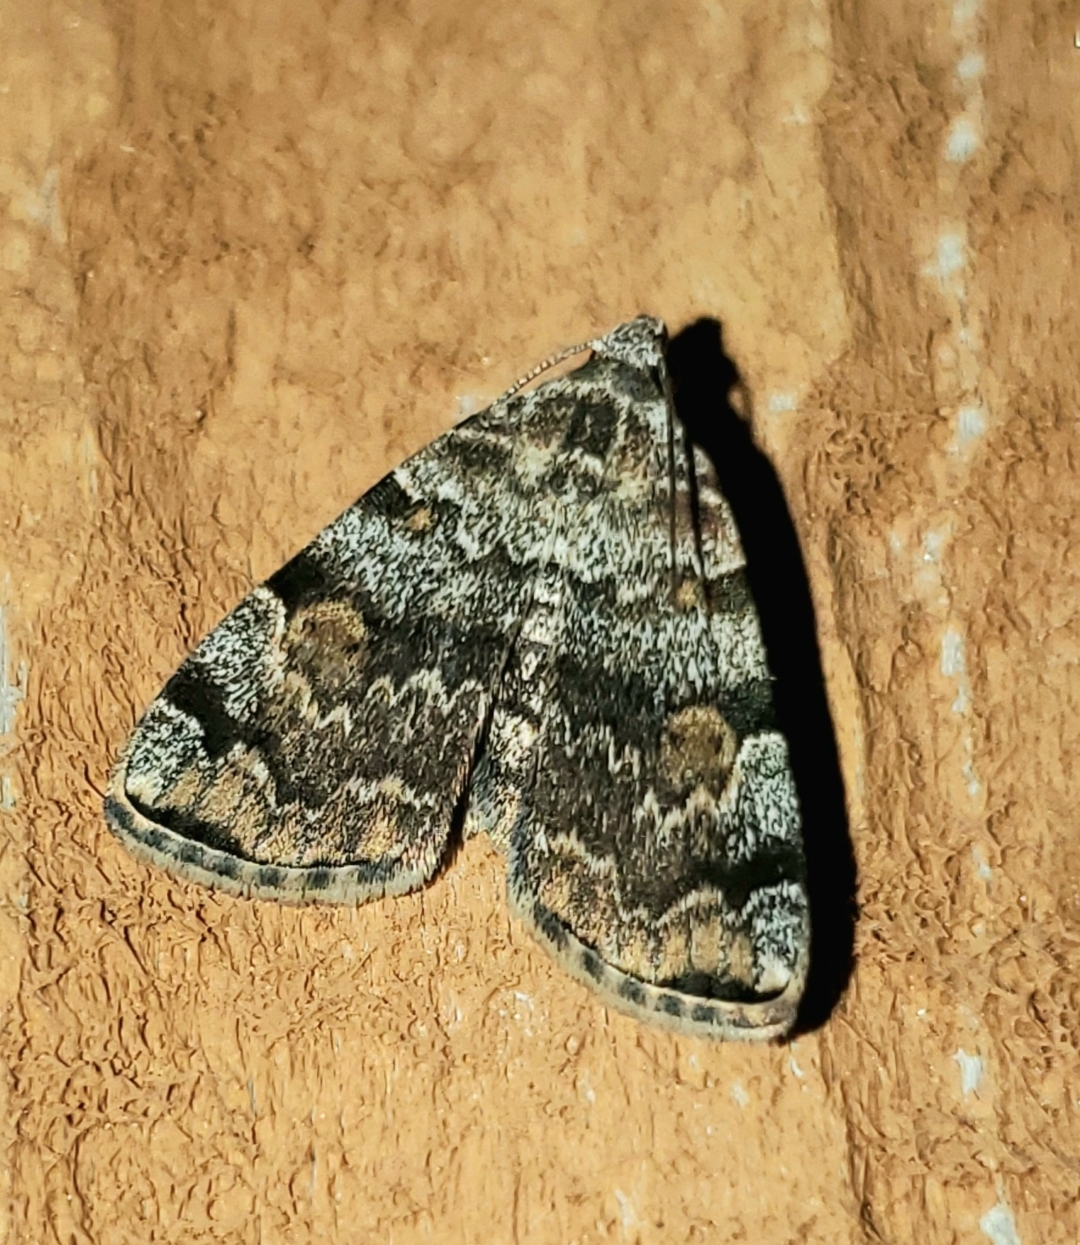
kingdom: Animalia
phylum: Arthropoda
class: Insecta
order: Lepidoptera
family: Erebidae
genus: Idia
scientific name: Idia americalis
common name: American idia moth
